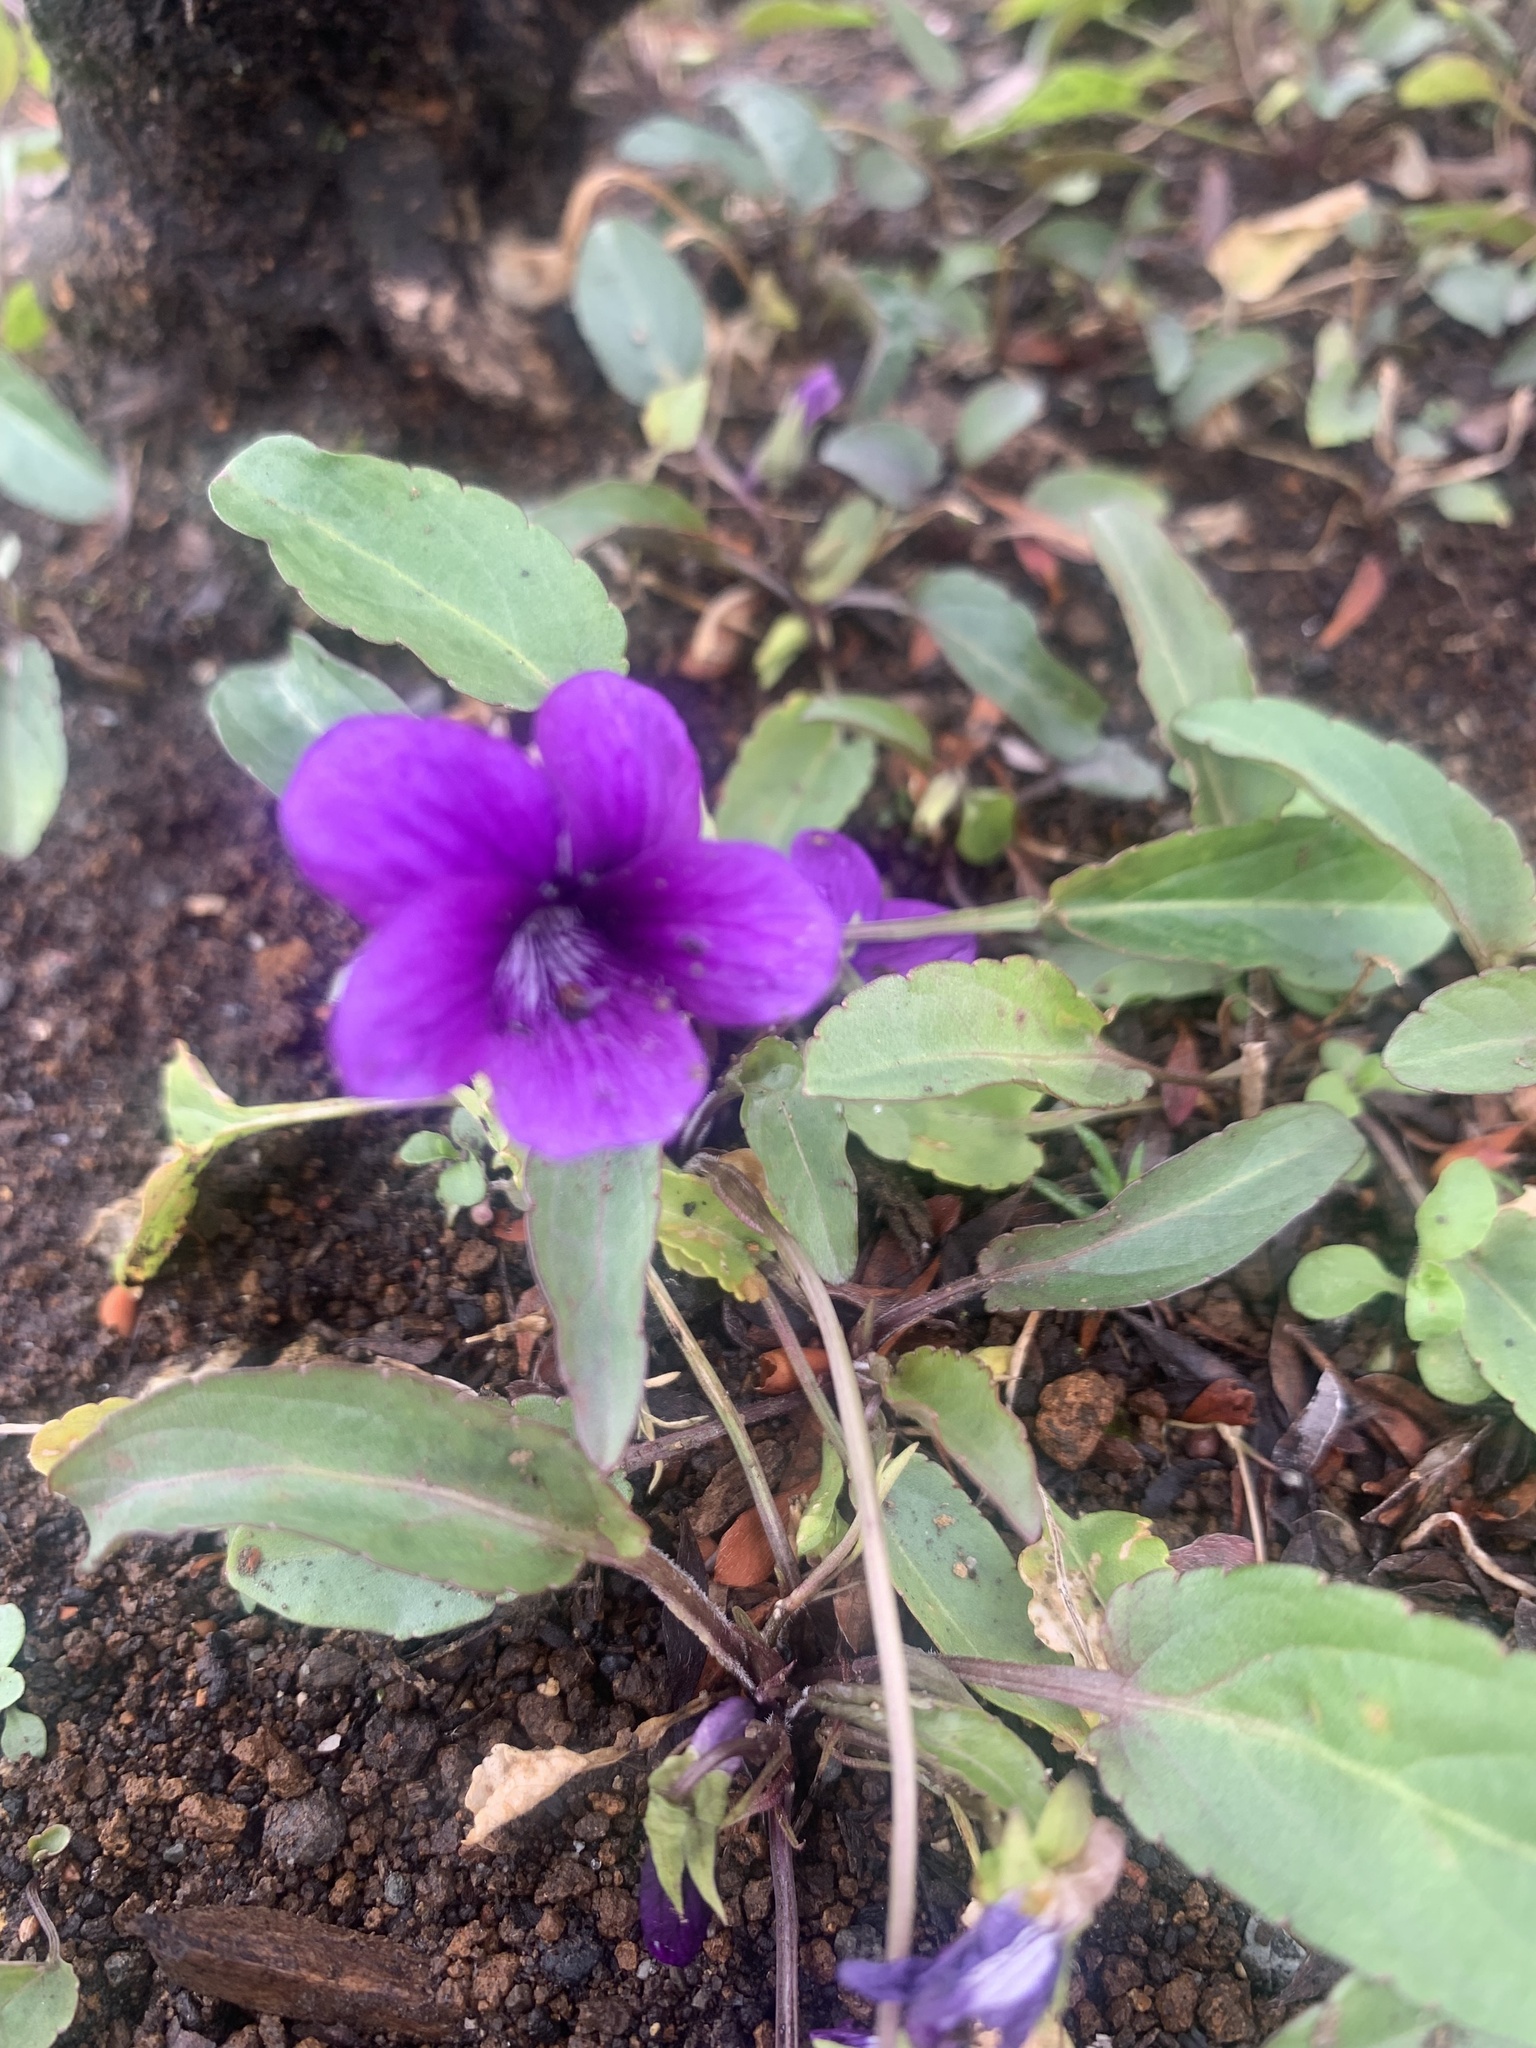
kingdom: Plantae
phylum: Tracheophyta
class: Magnoliopsida
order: Malpighiales
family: Violaceae
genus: Viola
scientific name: Viola mandshurica
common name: Manchuria violet
